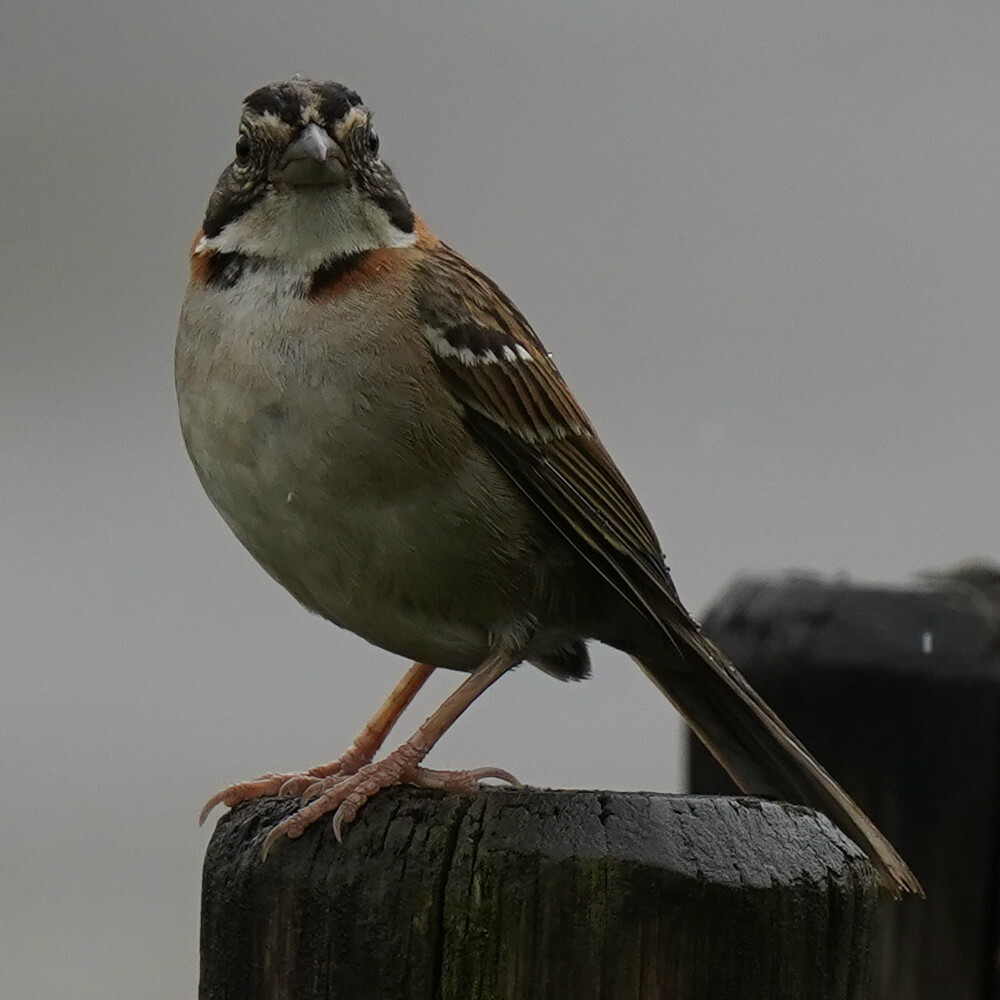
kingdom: Animalia
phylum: Chordata
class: Aves
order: Passeriformes
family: Passerellidae
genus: Zonotrichia
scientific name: Zonotrichia capensis
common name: Rufous-collared sparrow
